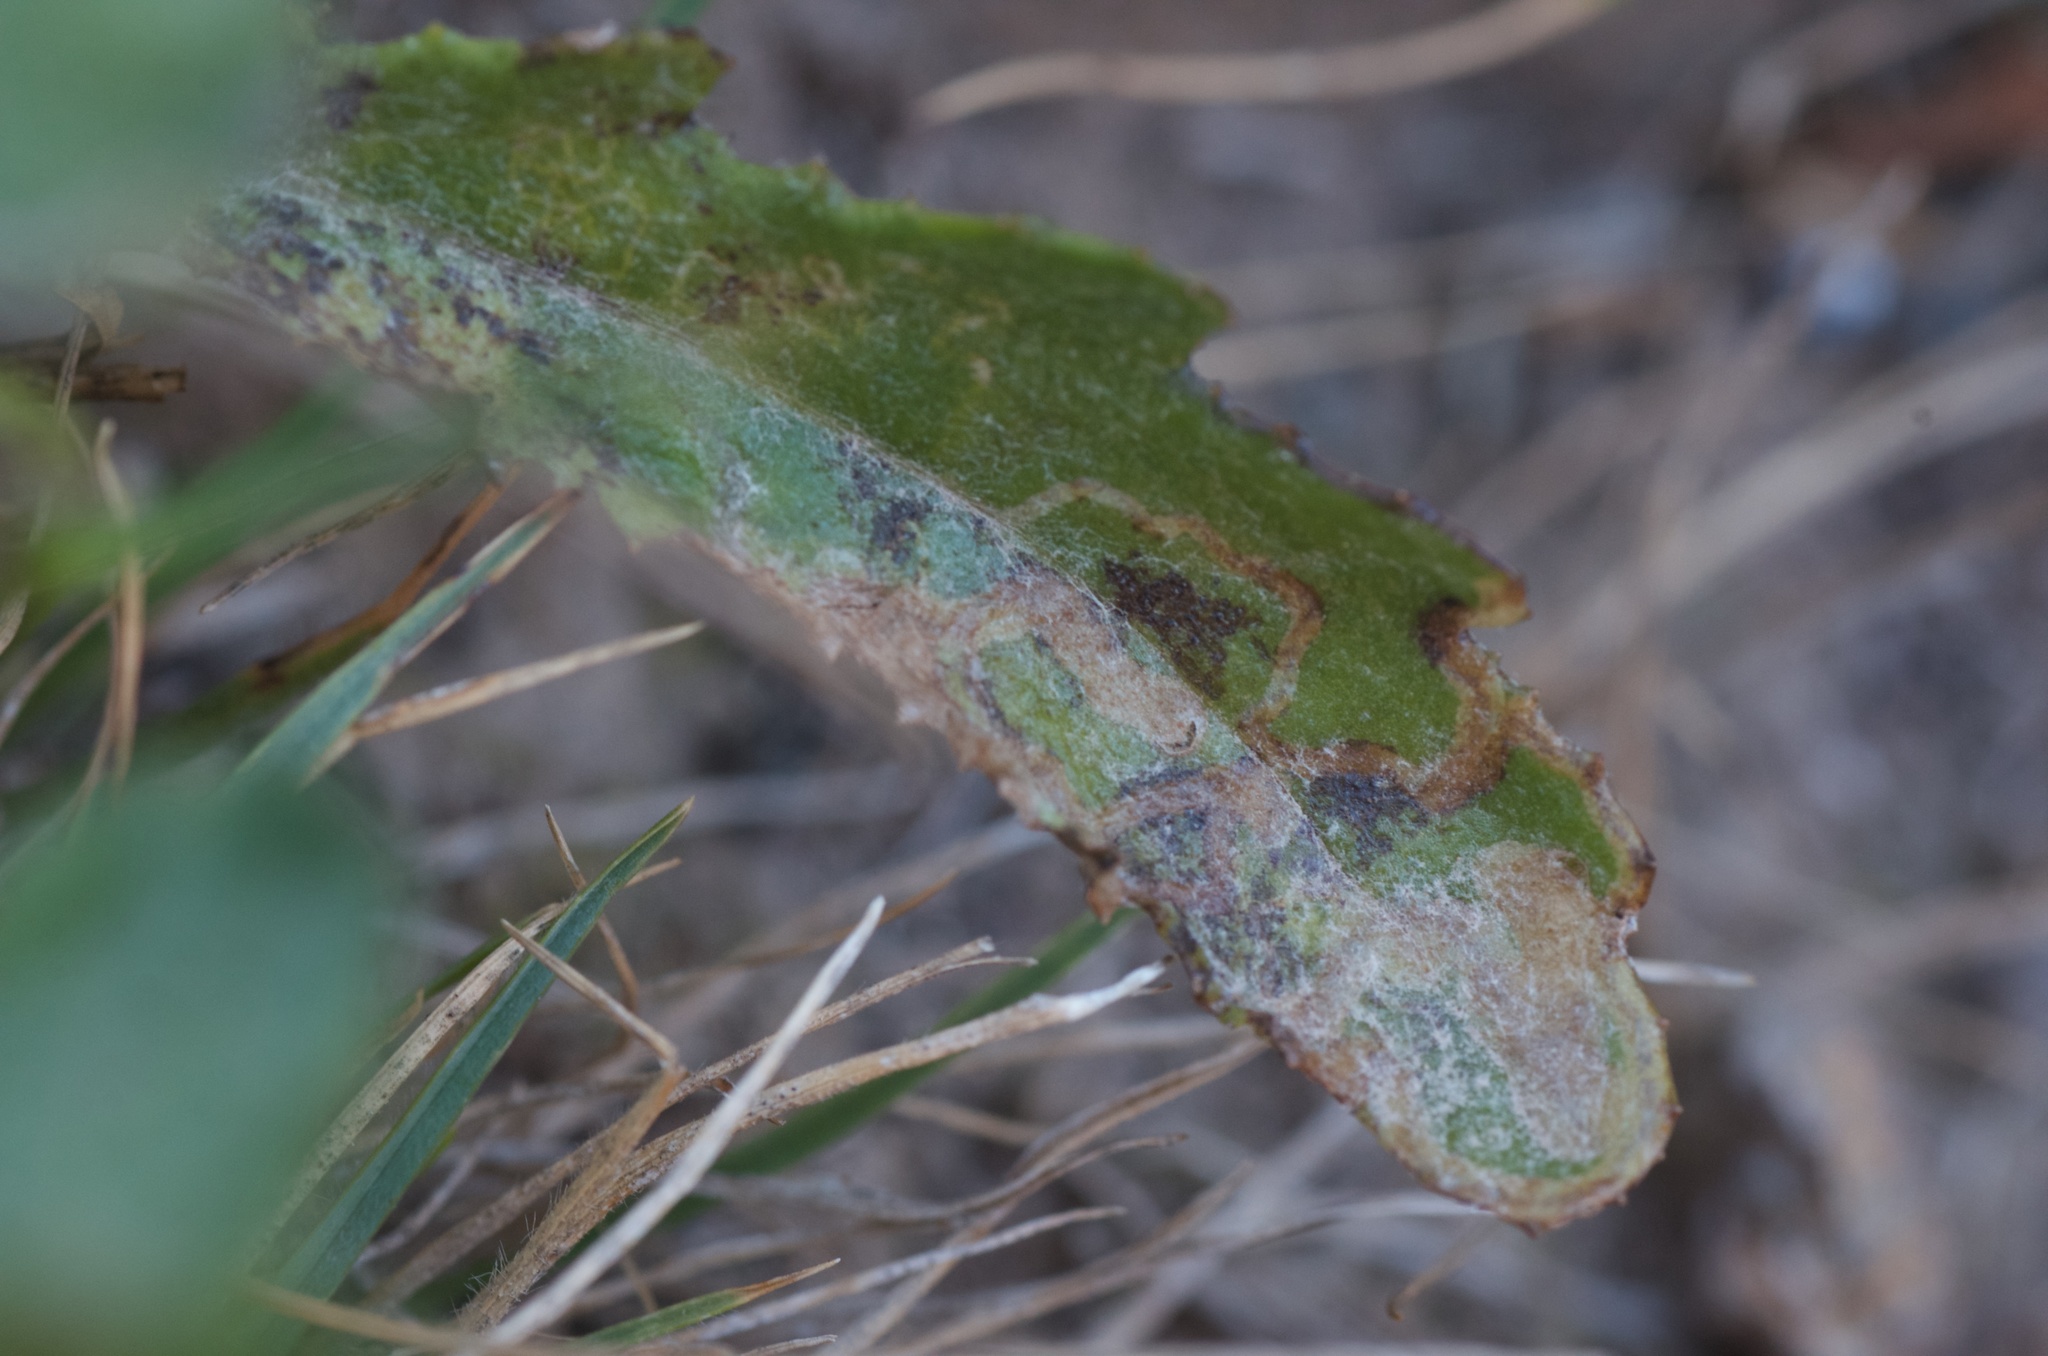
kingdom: Plantae
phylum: Tracheophyta
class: Magnoliopsida
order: Asterales
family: Asteraceae
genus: Senecio
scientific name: Senecio glomeratus
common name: Cutleaf burnweed
